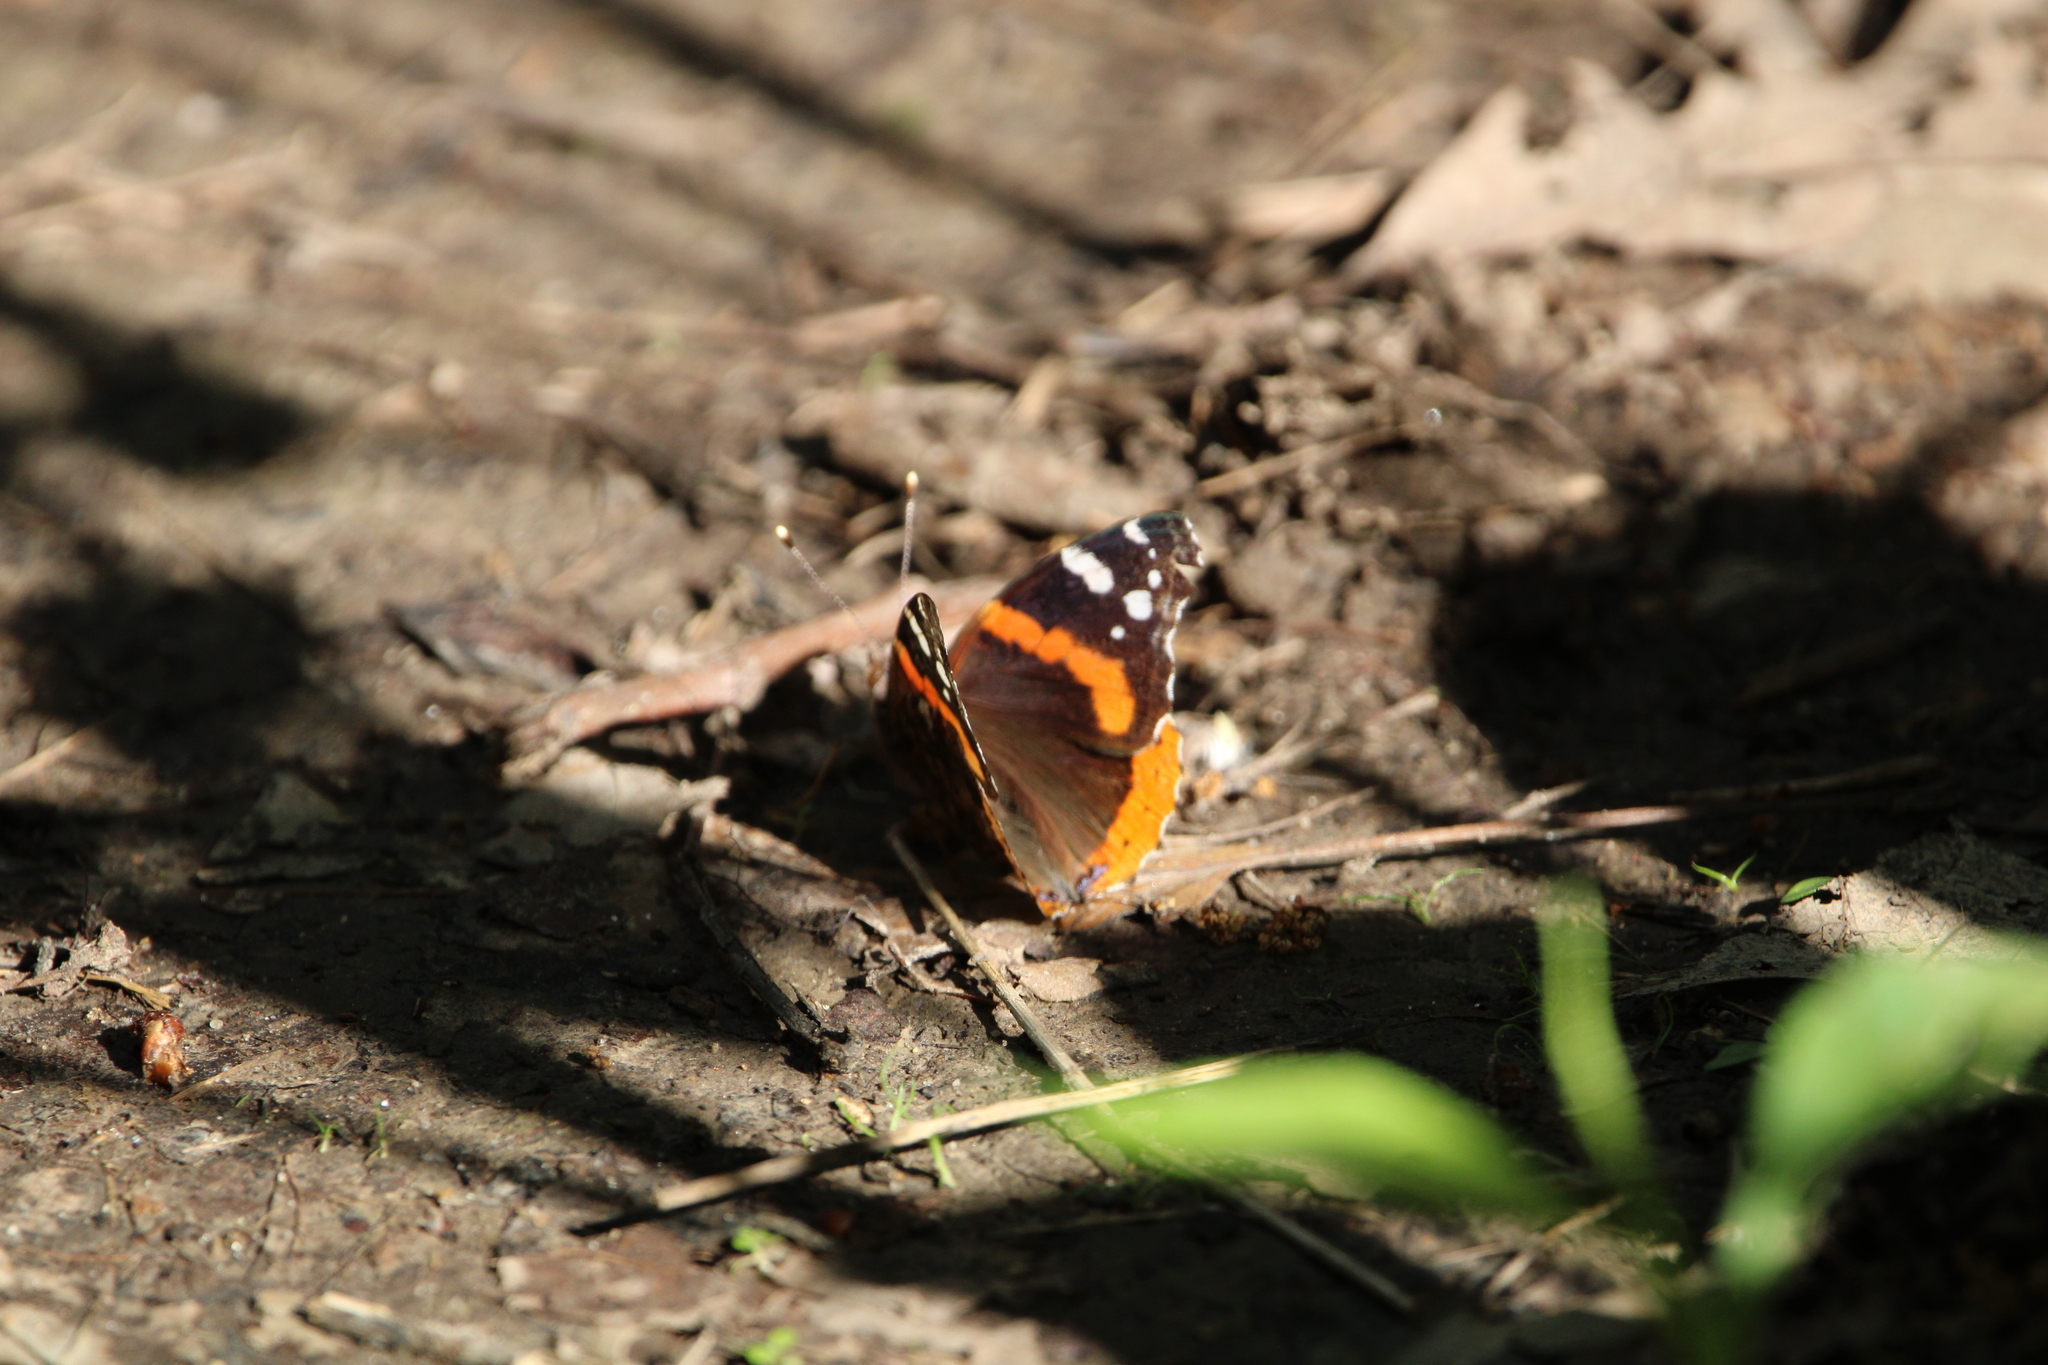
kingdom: Animalia
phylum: Arthropoda
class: Insecta
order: Lepidoptera
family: Nymphalidae
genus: Vanessa
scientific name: Vanessa atalanta
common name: Red admiral
